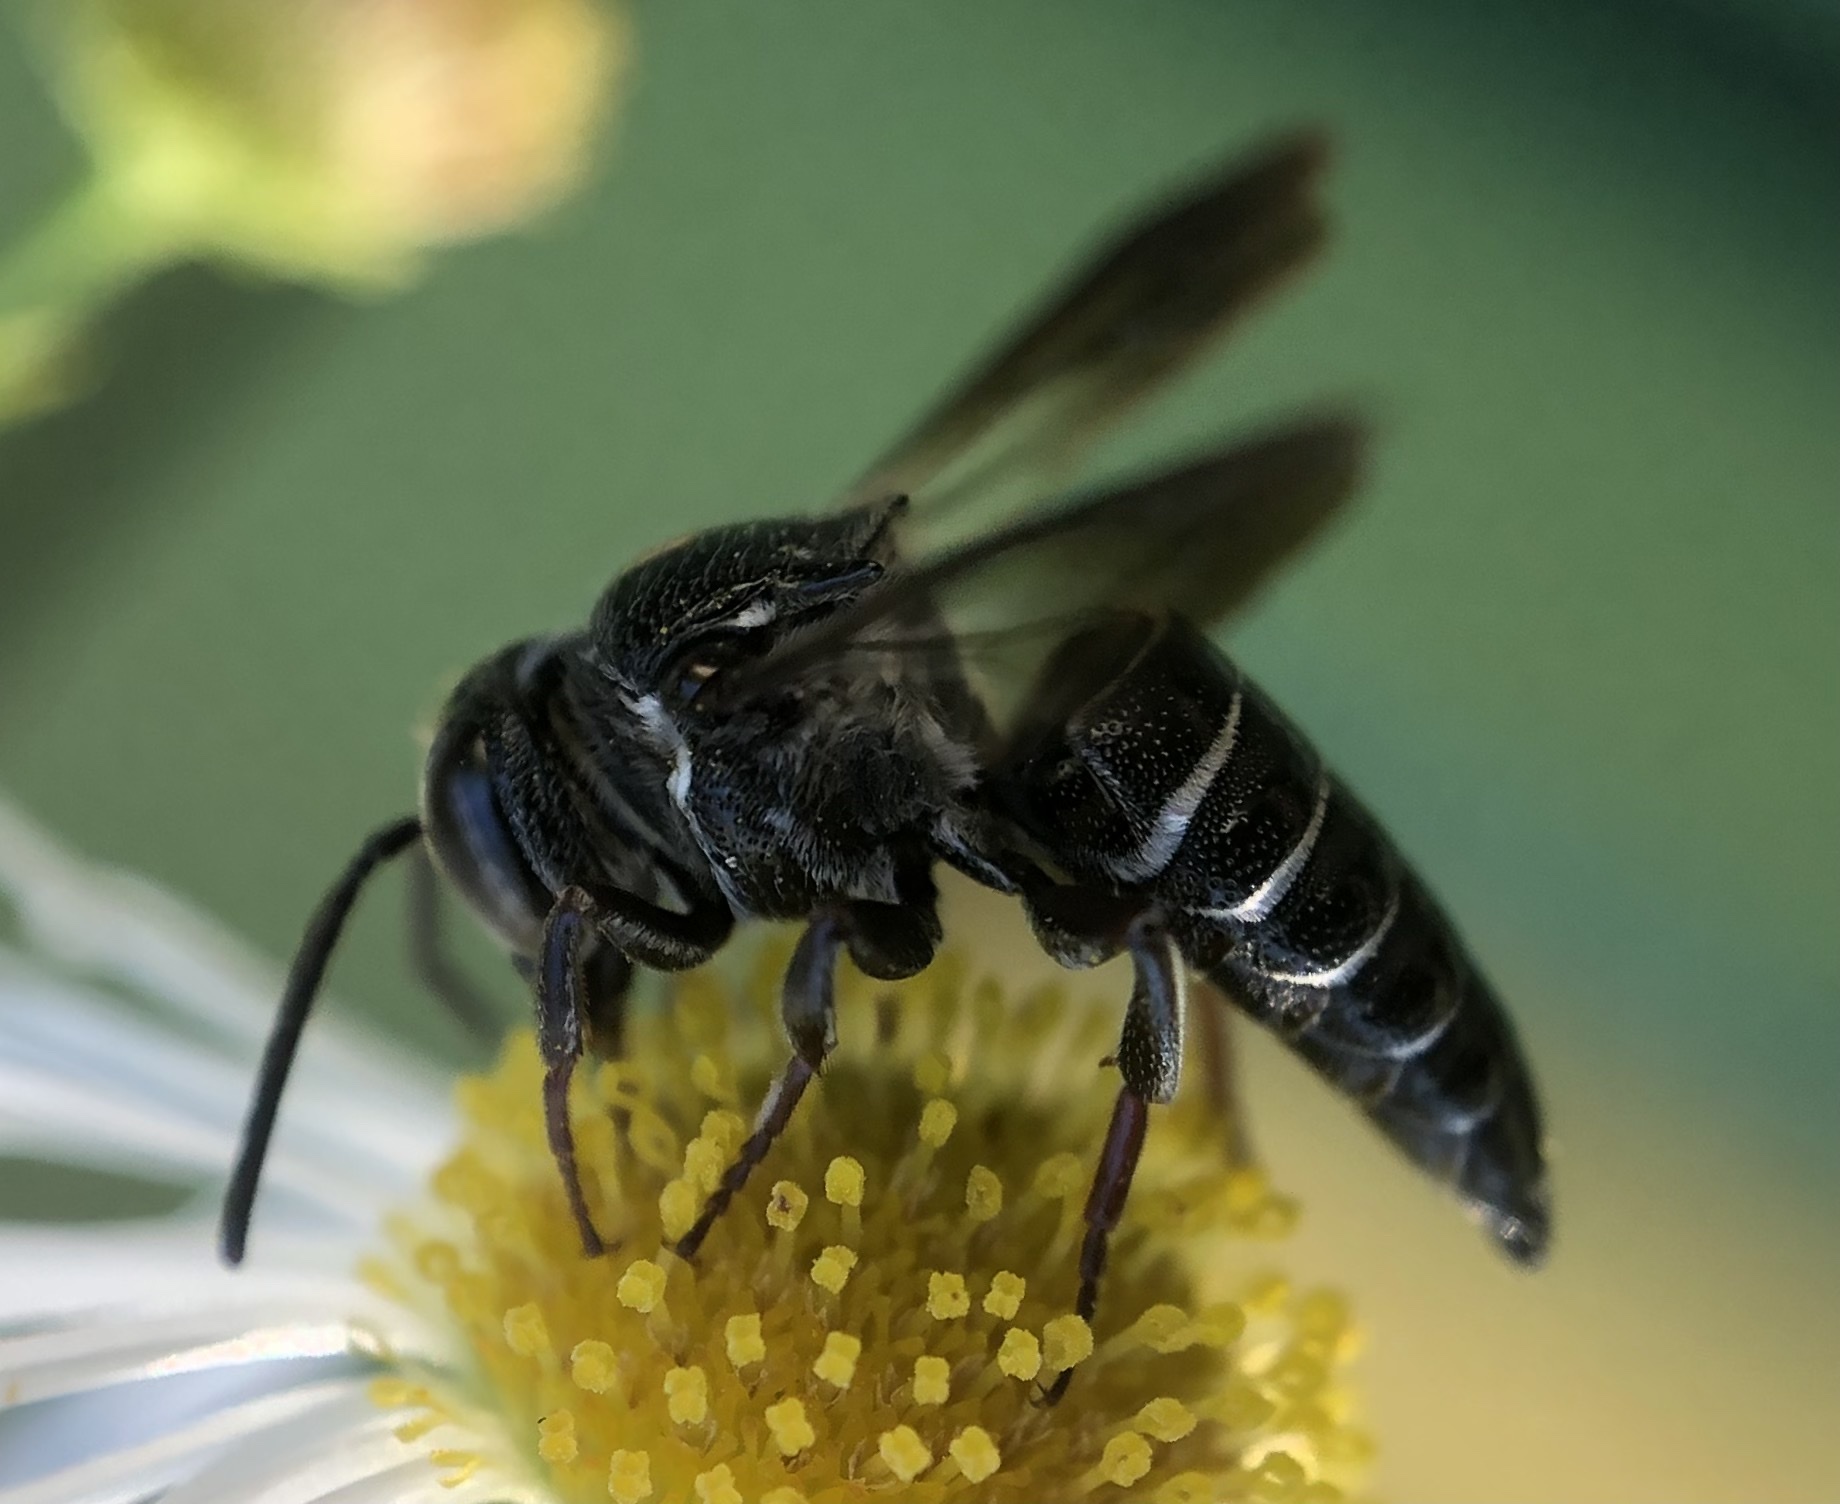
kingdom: Animalia
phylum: Arthropoda
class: Insecta
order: Hymenoptera
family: Megachilidae
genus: Coelioxys
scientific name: Coelioxys dolichos
